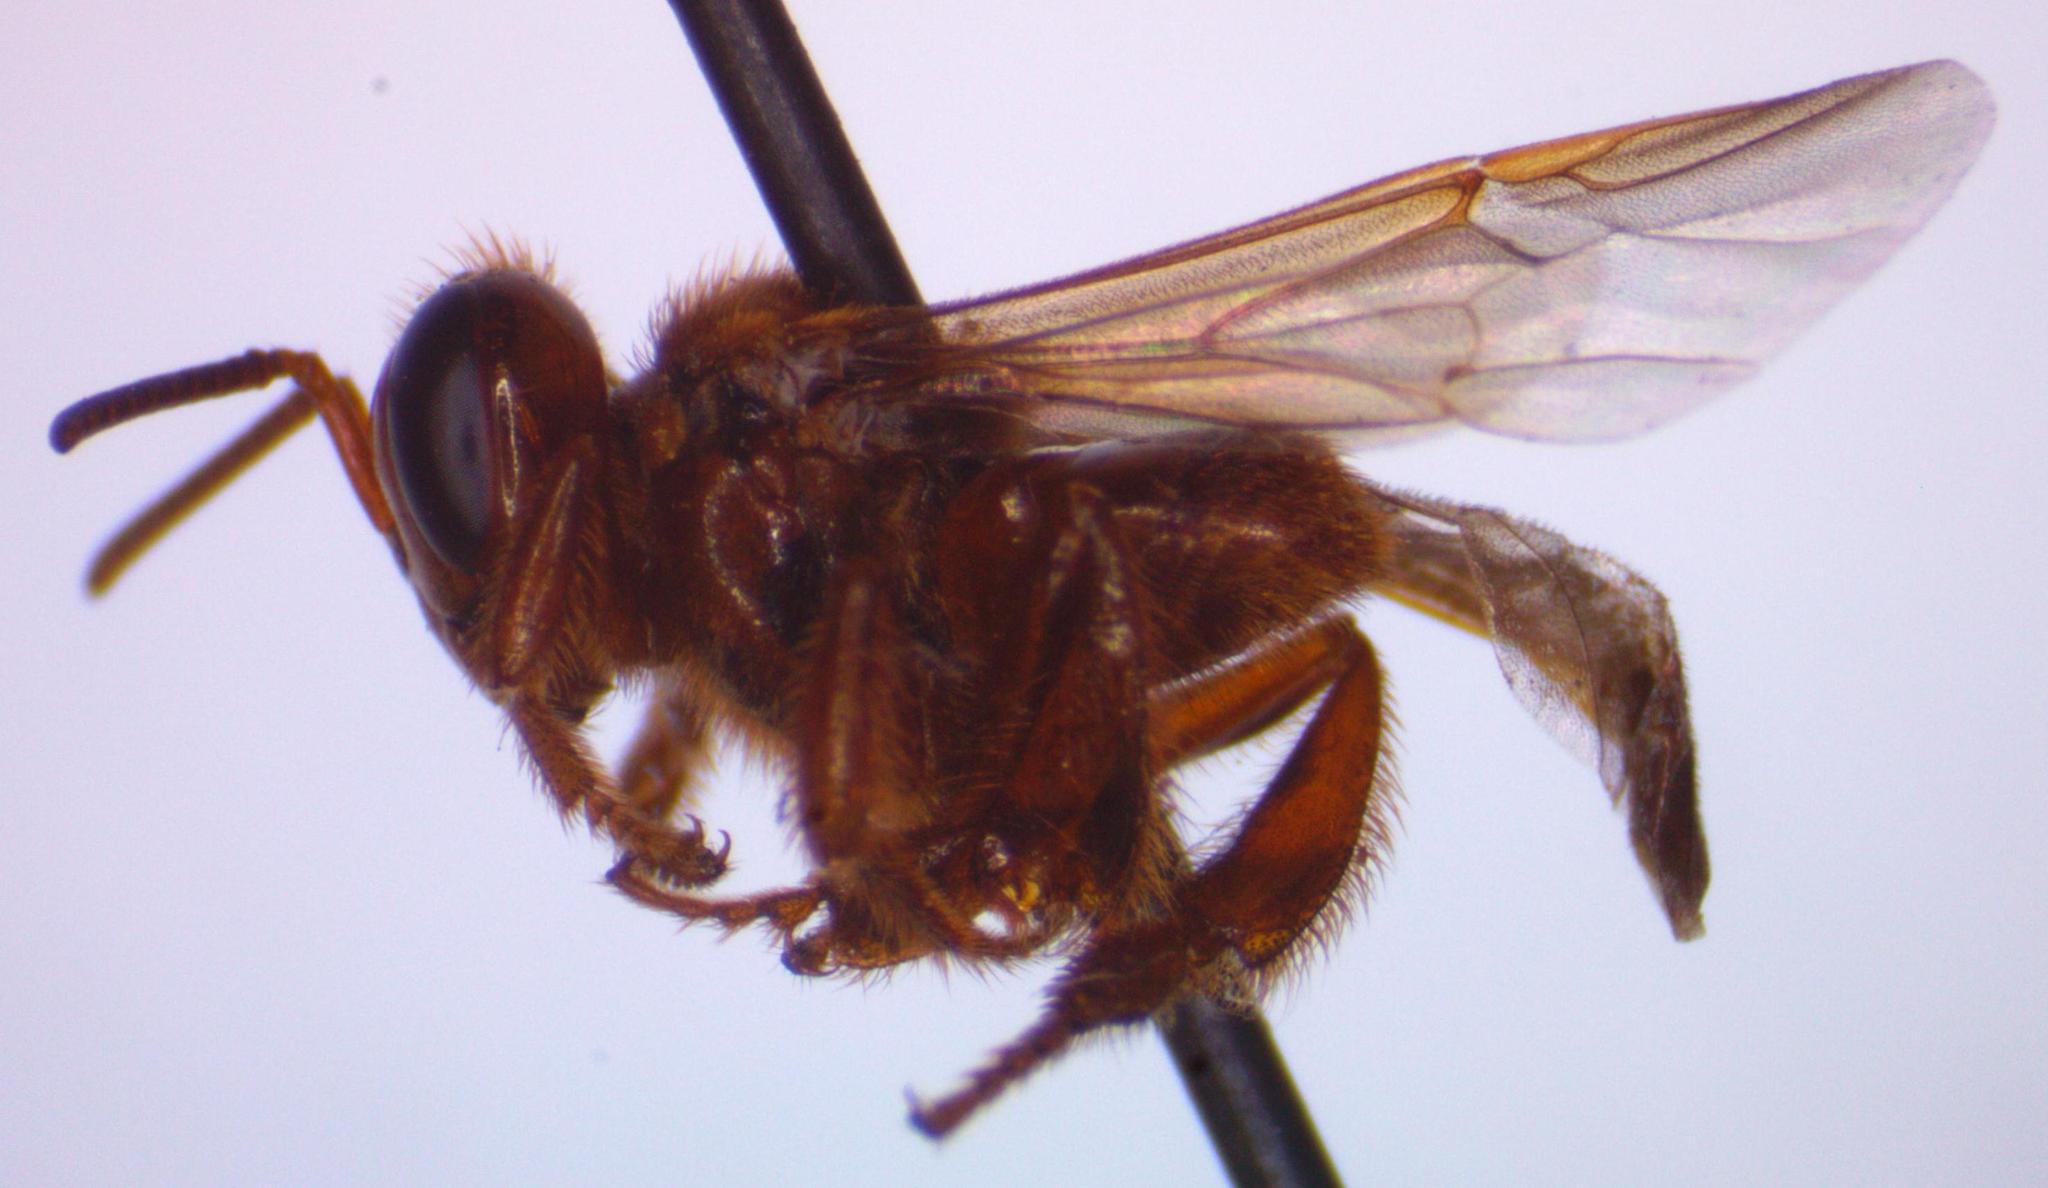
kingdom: Animalia
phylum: Arthropoda
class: Insecta
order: Hymenoptera
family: Apidae
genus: Oxytrigona
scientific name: Oxytrigona mellicolor
